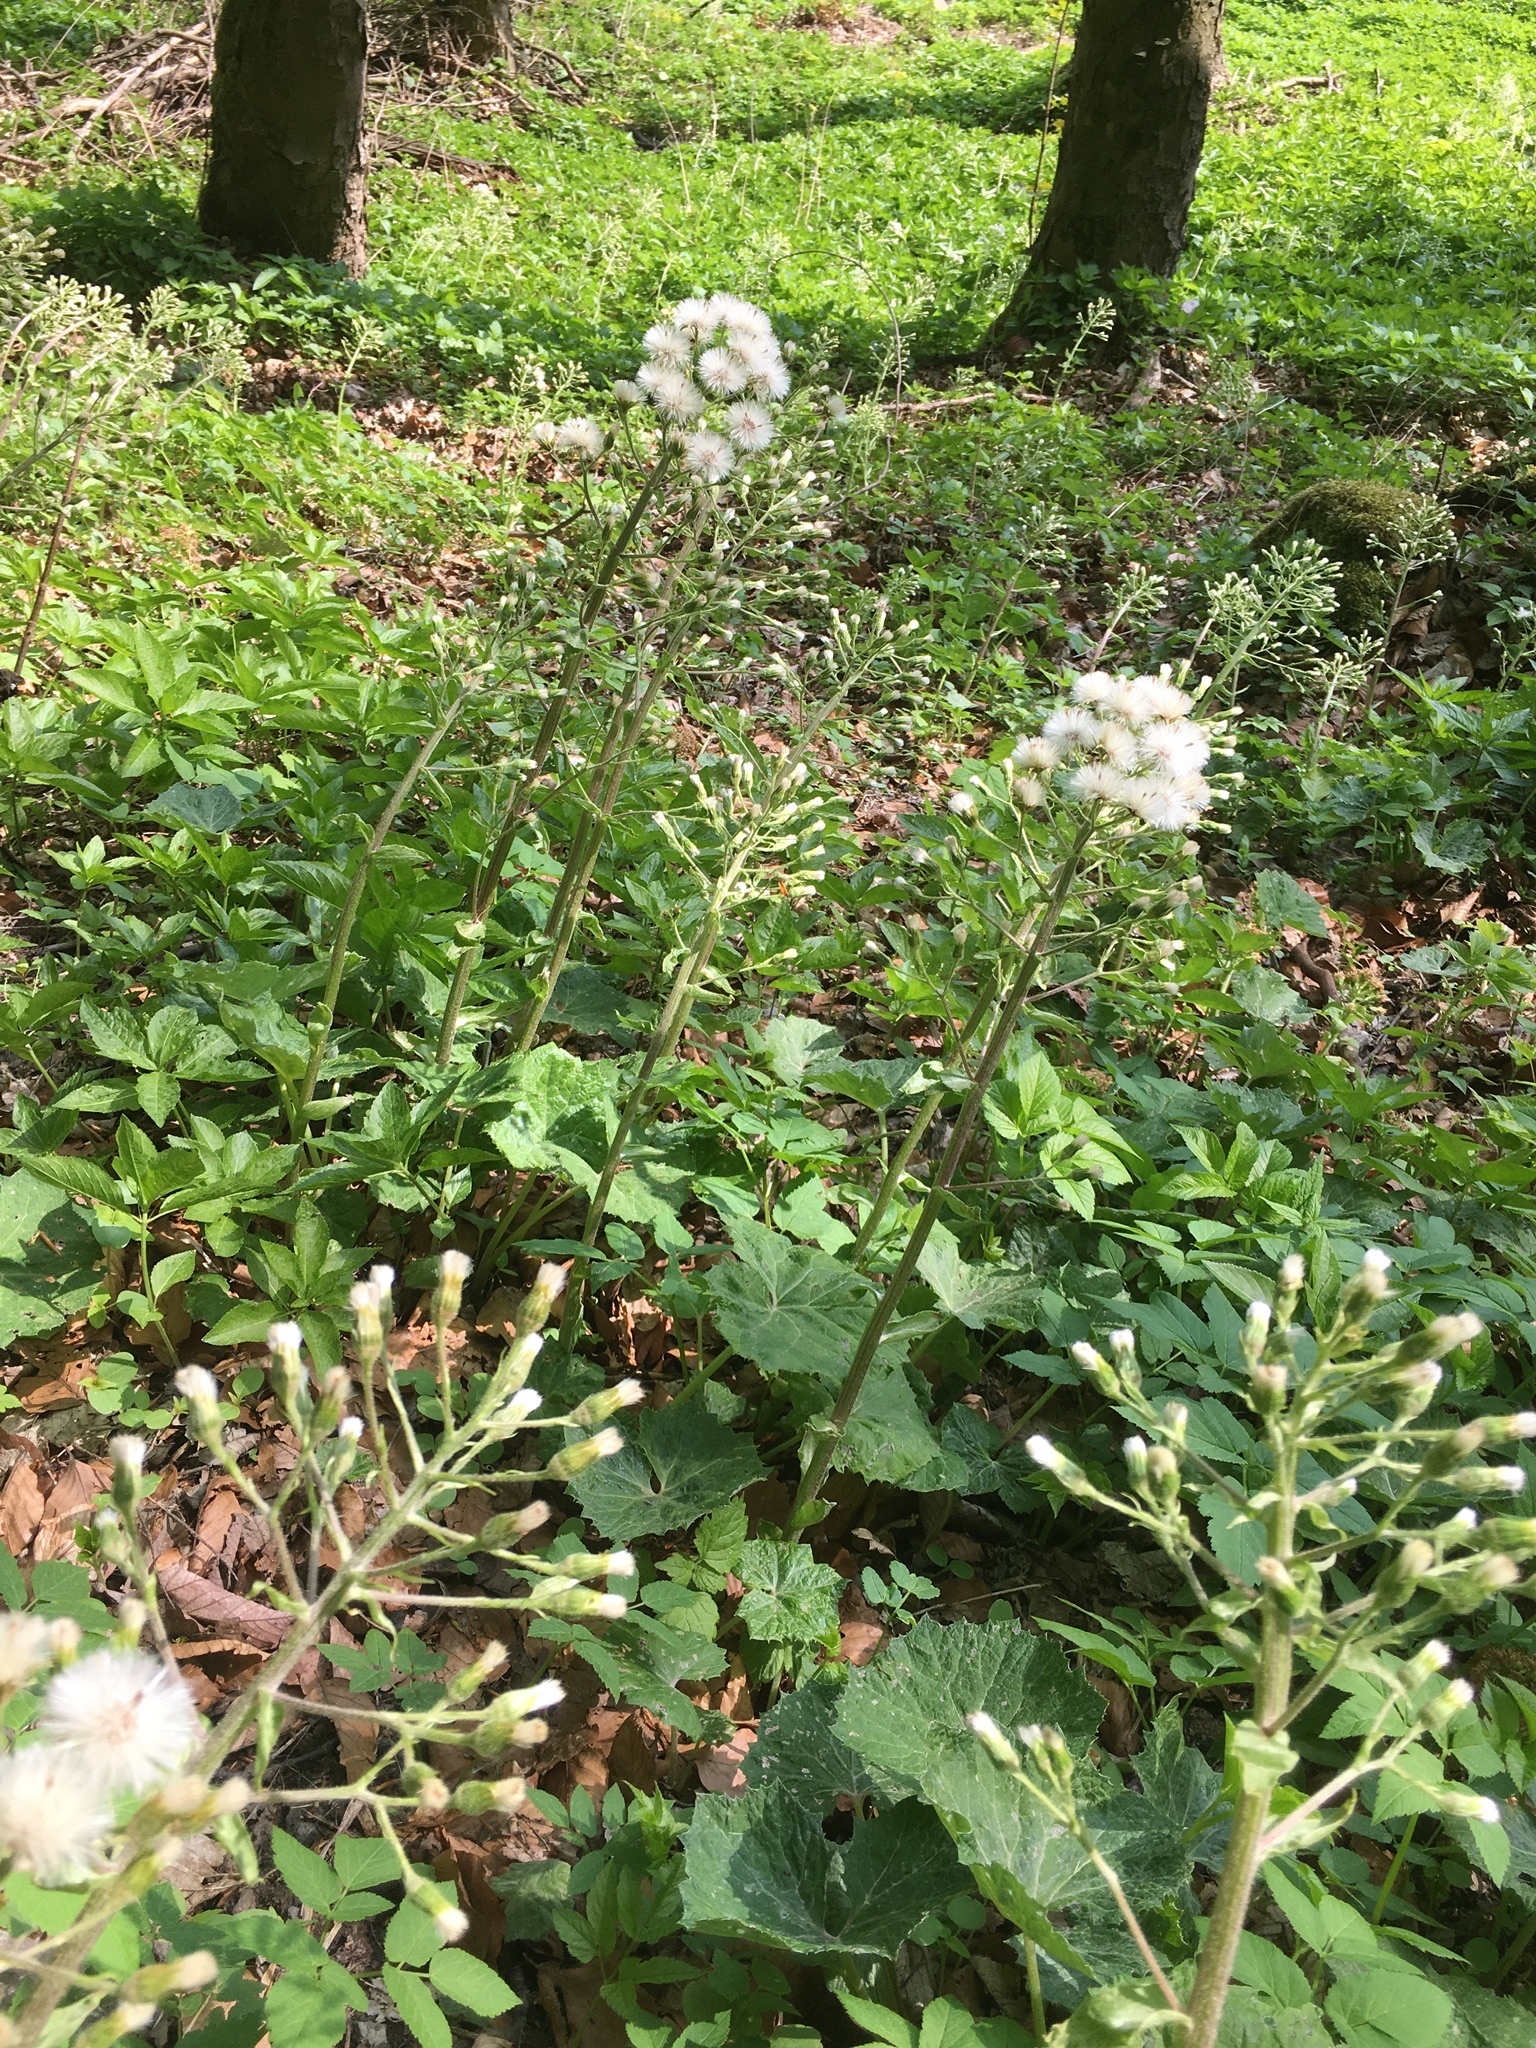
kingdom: Plantae
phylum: Tracheophyta
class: Magnoliopsida
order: Asterales
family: Asteraceae
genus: Petasites
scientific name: Petasites albus
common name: White butterbur
